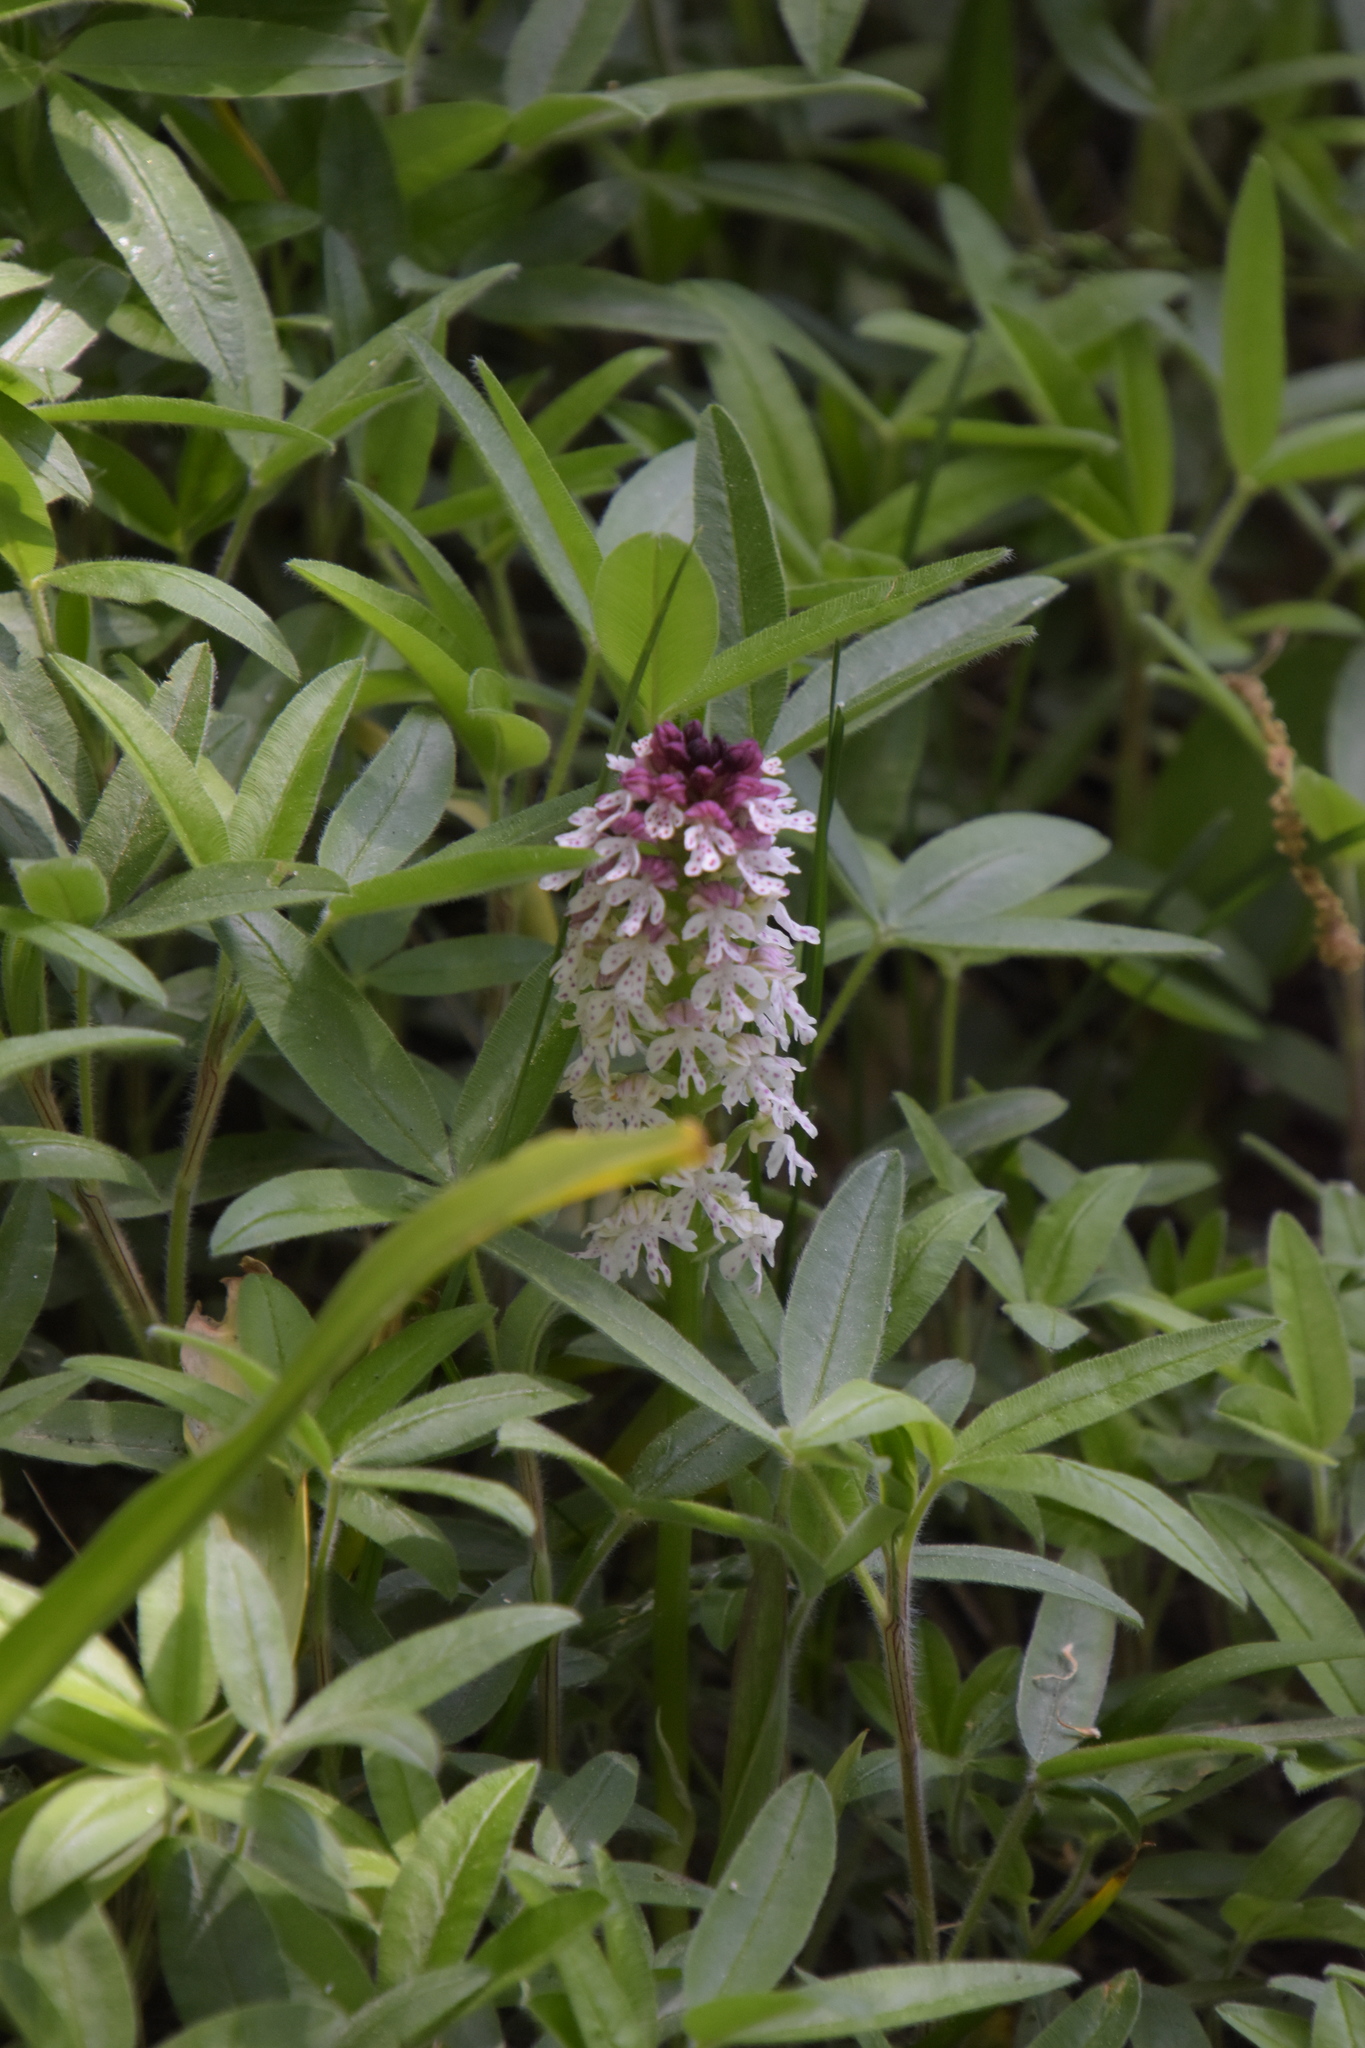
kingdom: Plantae
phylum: Tracheophyta
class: Liliopsida
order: Asparagales
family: Orchidaceae
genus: Neotinea
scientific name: Neotinea ustulata
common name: Burnt orchid
